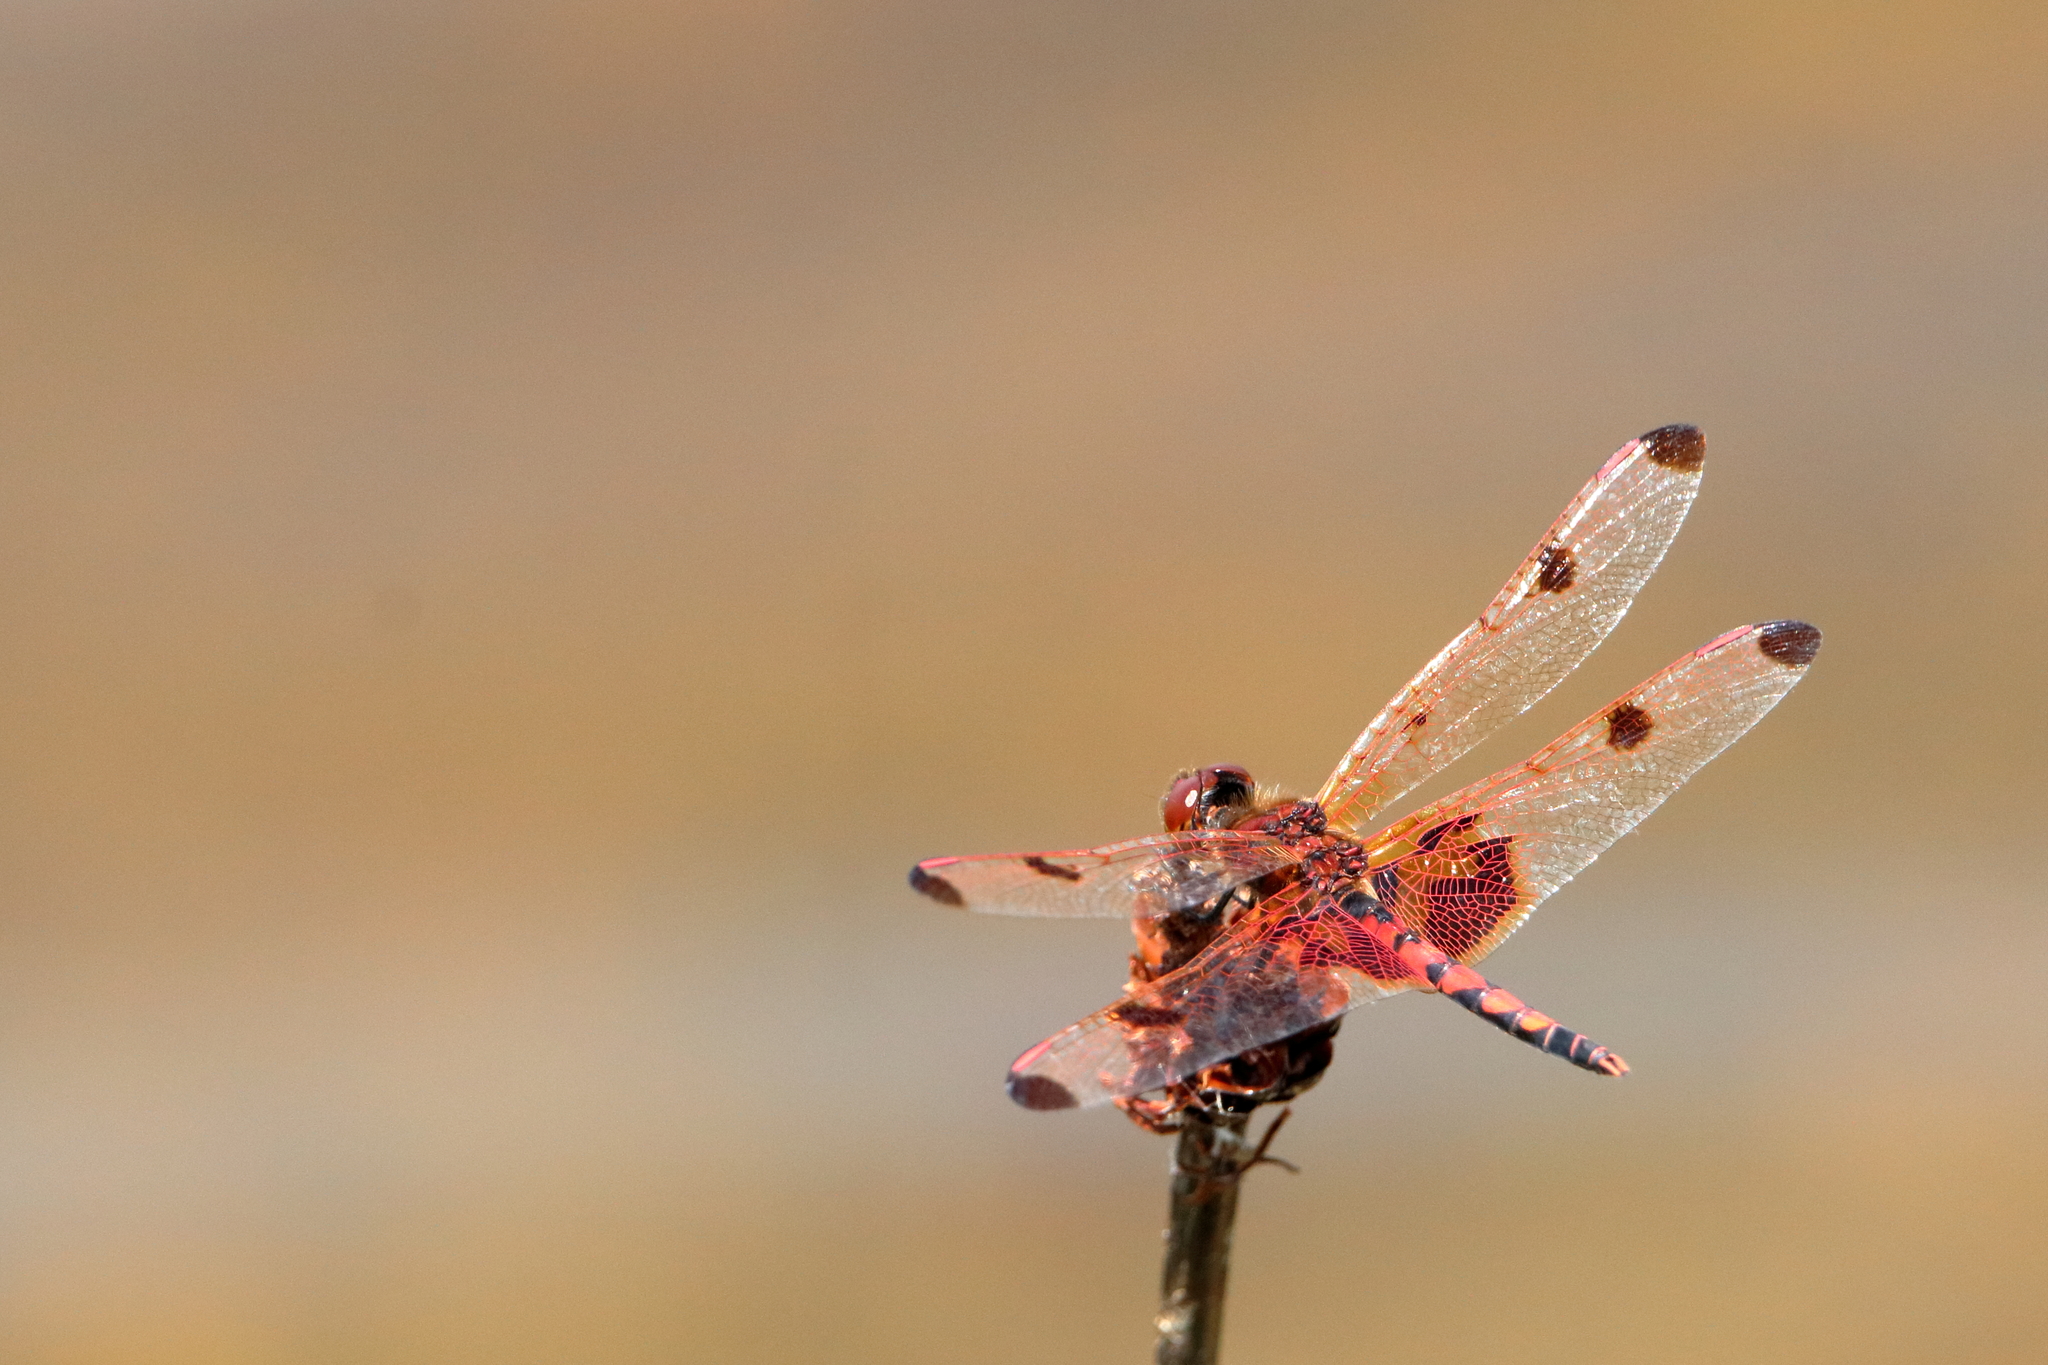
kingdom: Animalia
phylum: Arthropoda
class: Insecta
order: Odonata
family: Libellulidae
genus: Celithemis
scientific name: Celithemis elisa
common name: Calico pennant
